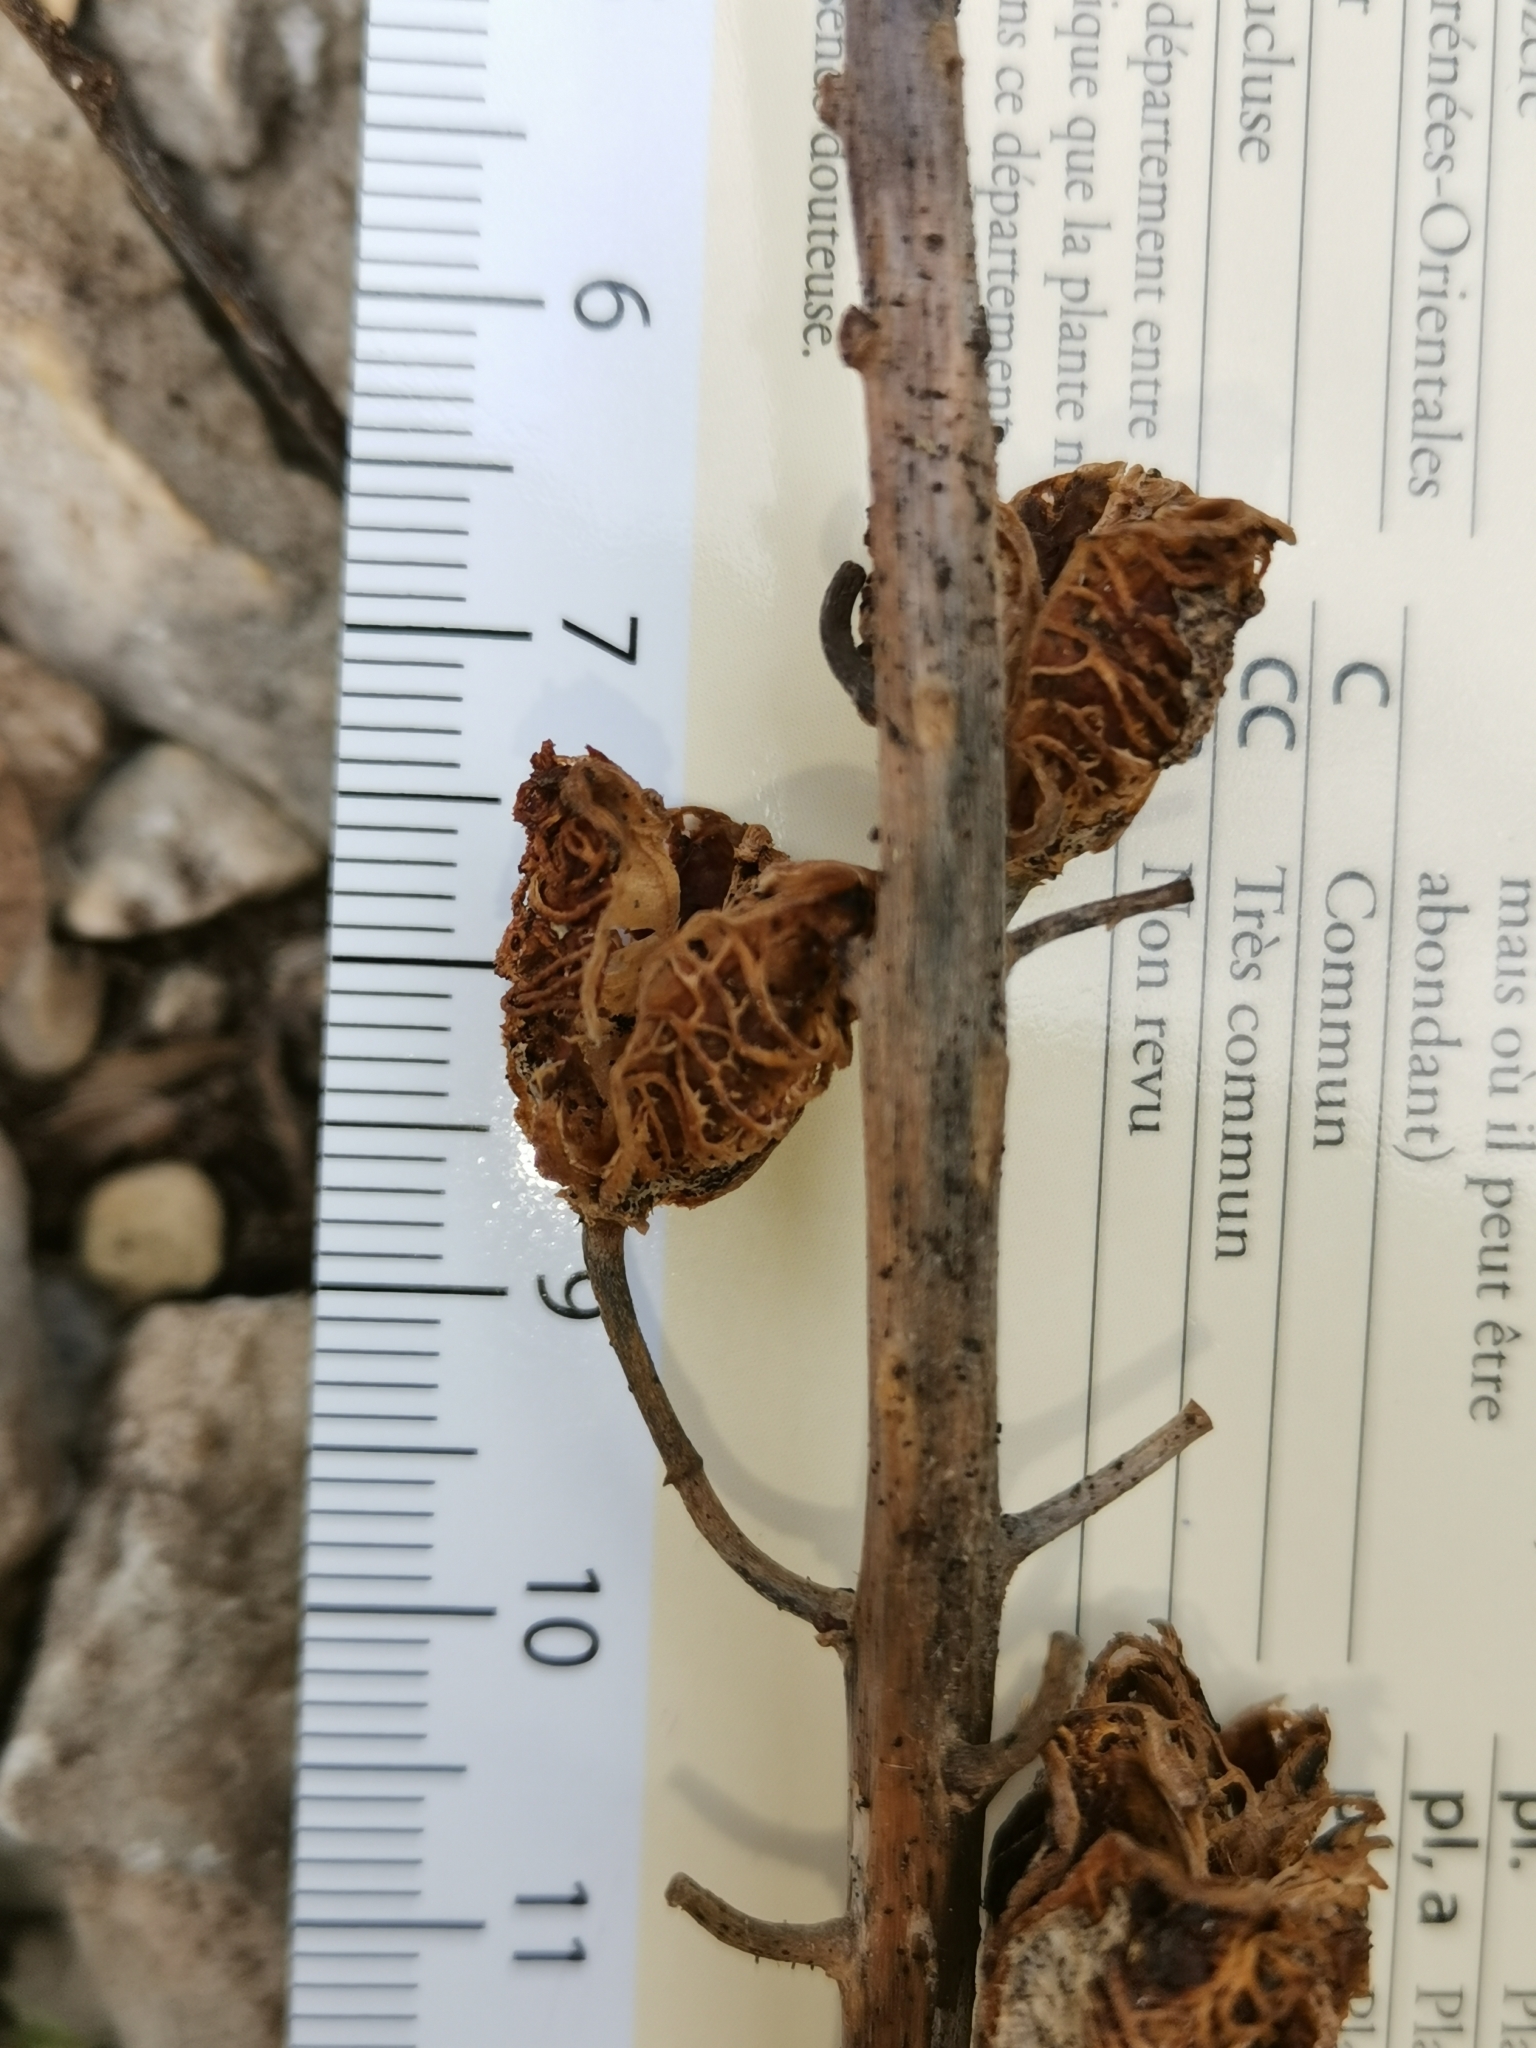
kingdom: Plantae
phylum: Tracheophyta
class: Liliopsida
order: Asparagales
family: Asphodelaceae
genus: Asphodelus
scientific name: Asphodelus cerasifer
